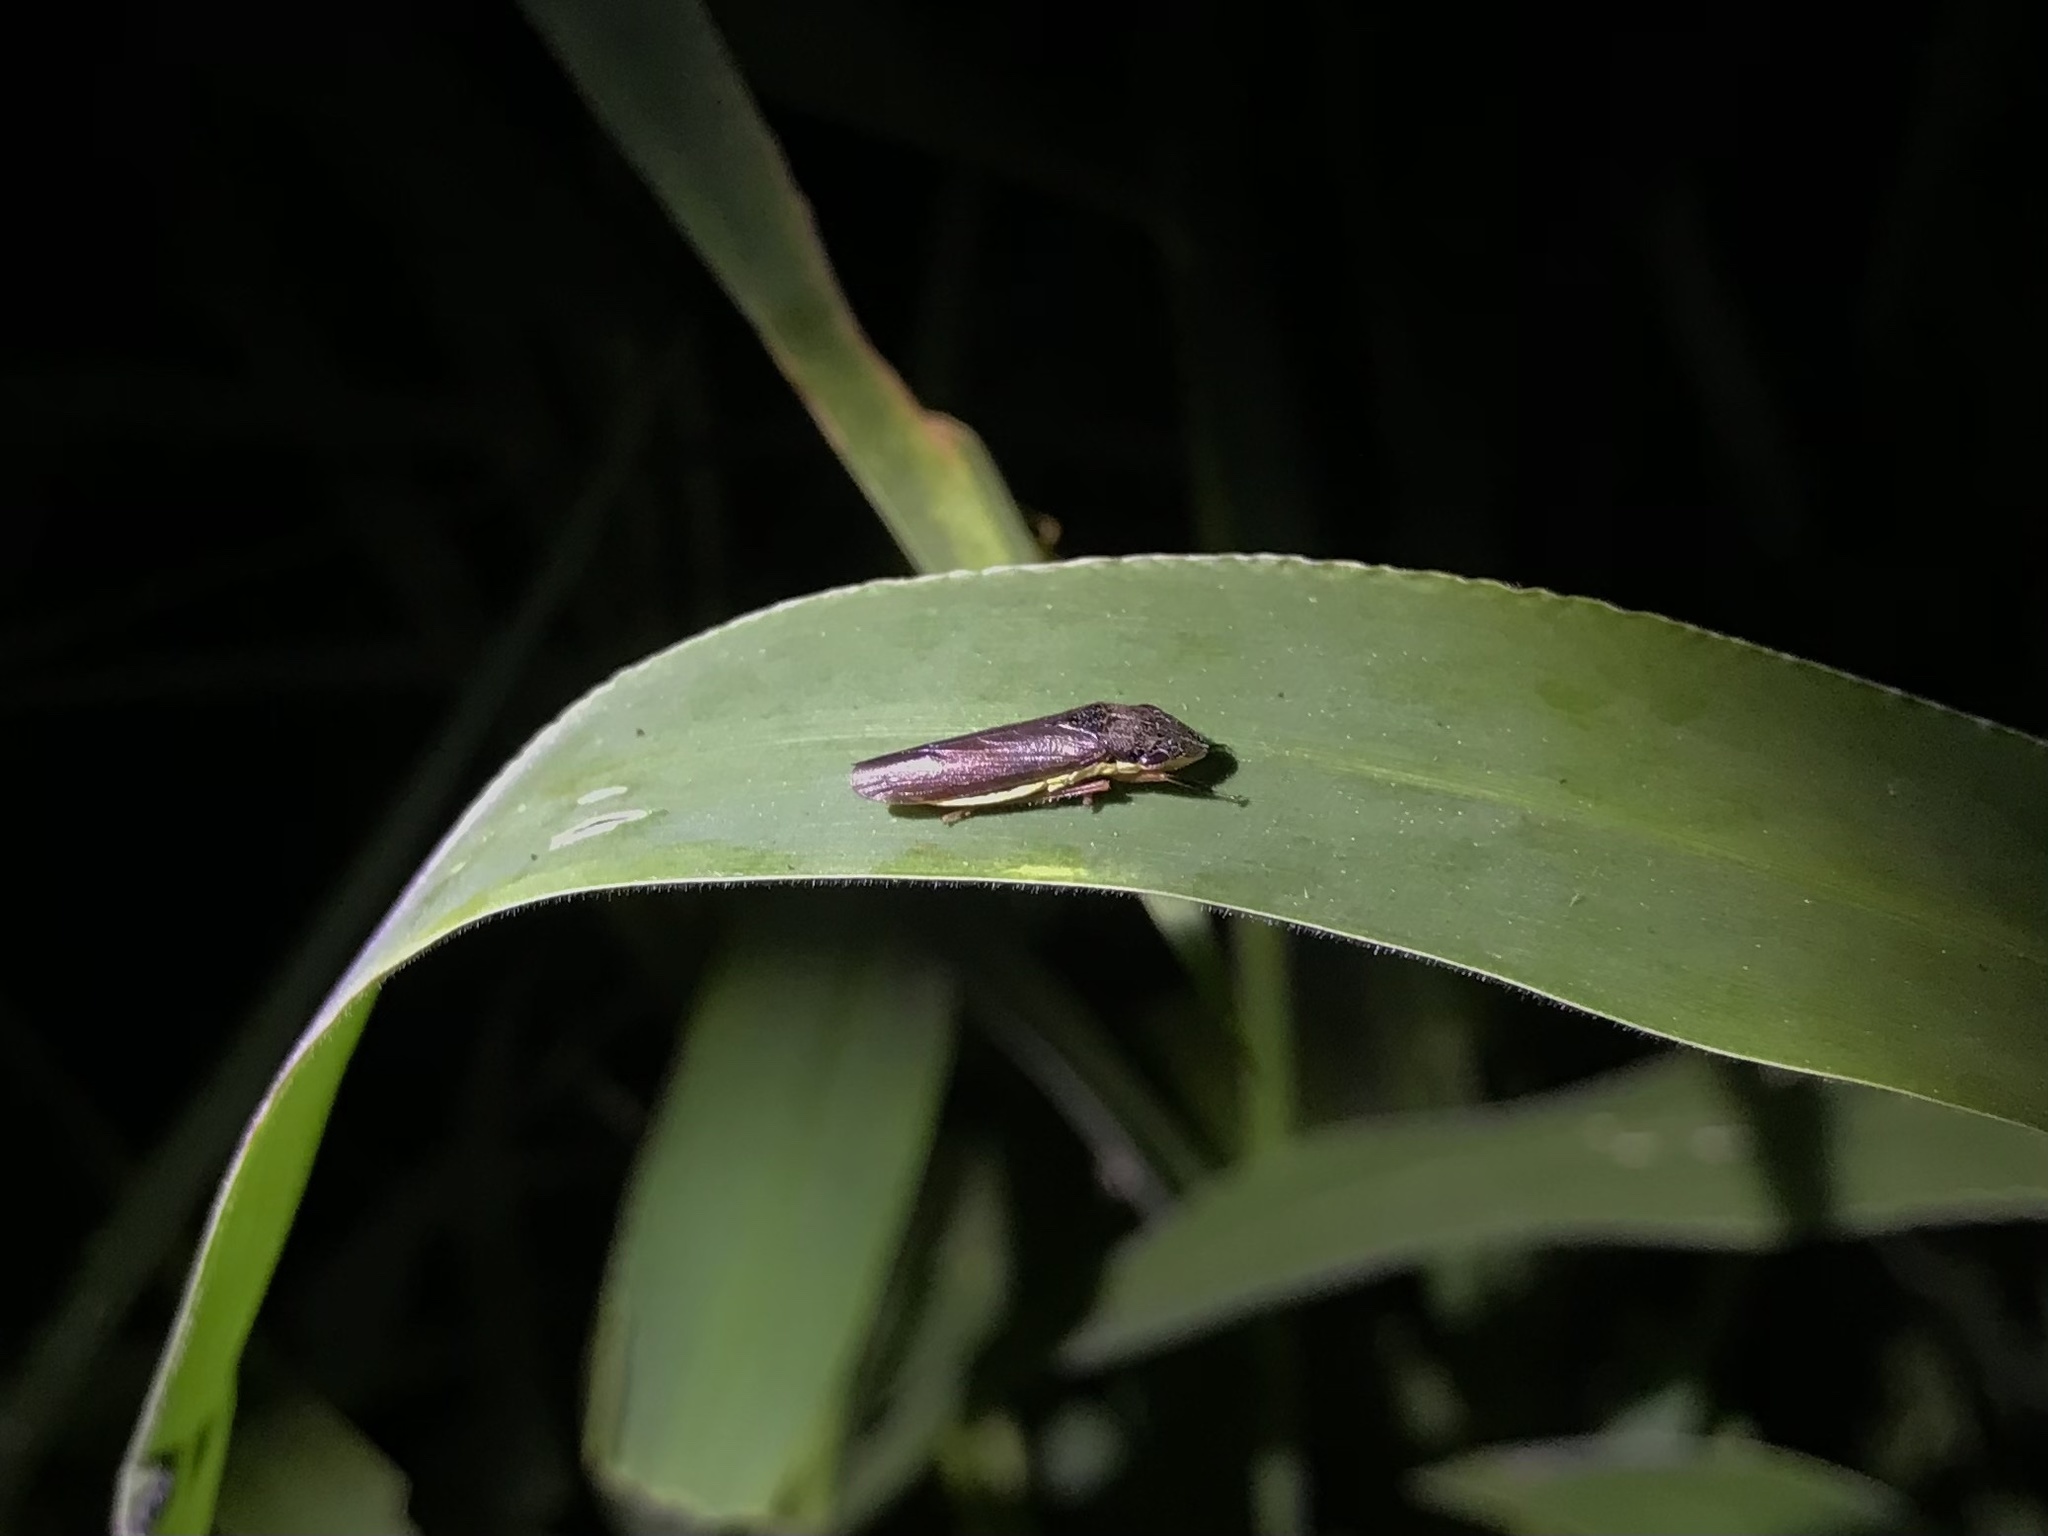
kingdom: Animalia
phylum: Arthropoda
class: Insecta
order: Hemiptera
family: Cicadellidae
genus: Homalodisca
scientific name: Homalodisca insolita
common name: Johnson grass sharpshooter
